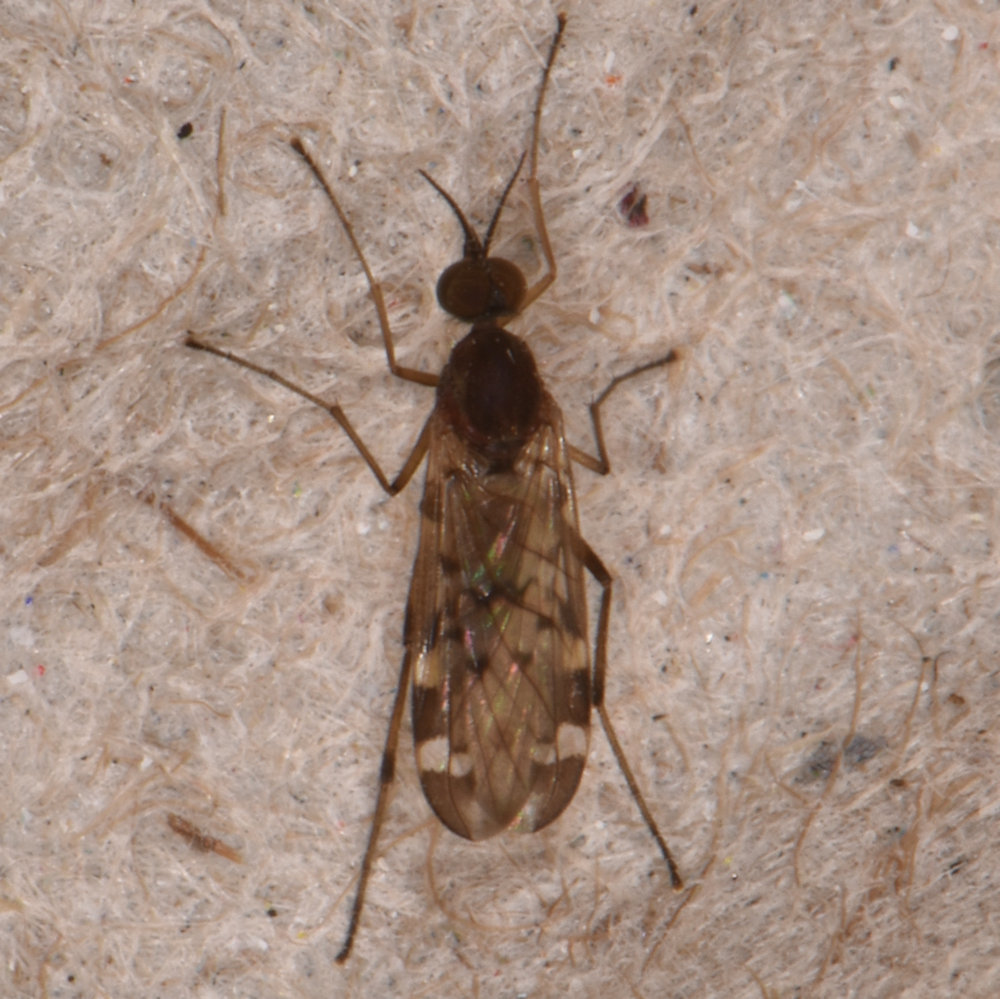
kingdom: Animalia
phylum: Arthropoda
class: Insecta
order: Diptera
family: Anisopodidae
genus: Sylvicola
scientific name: Sylvicola alternata
